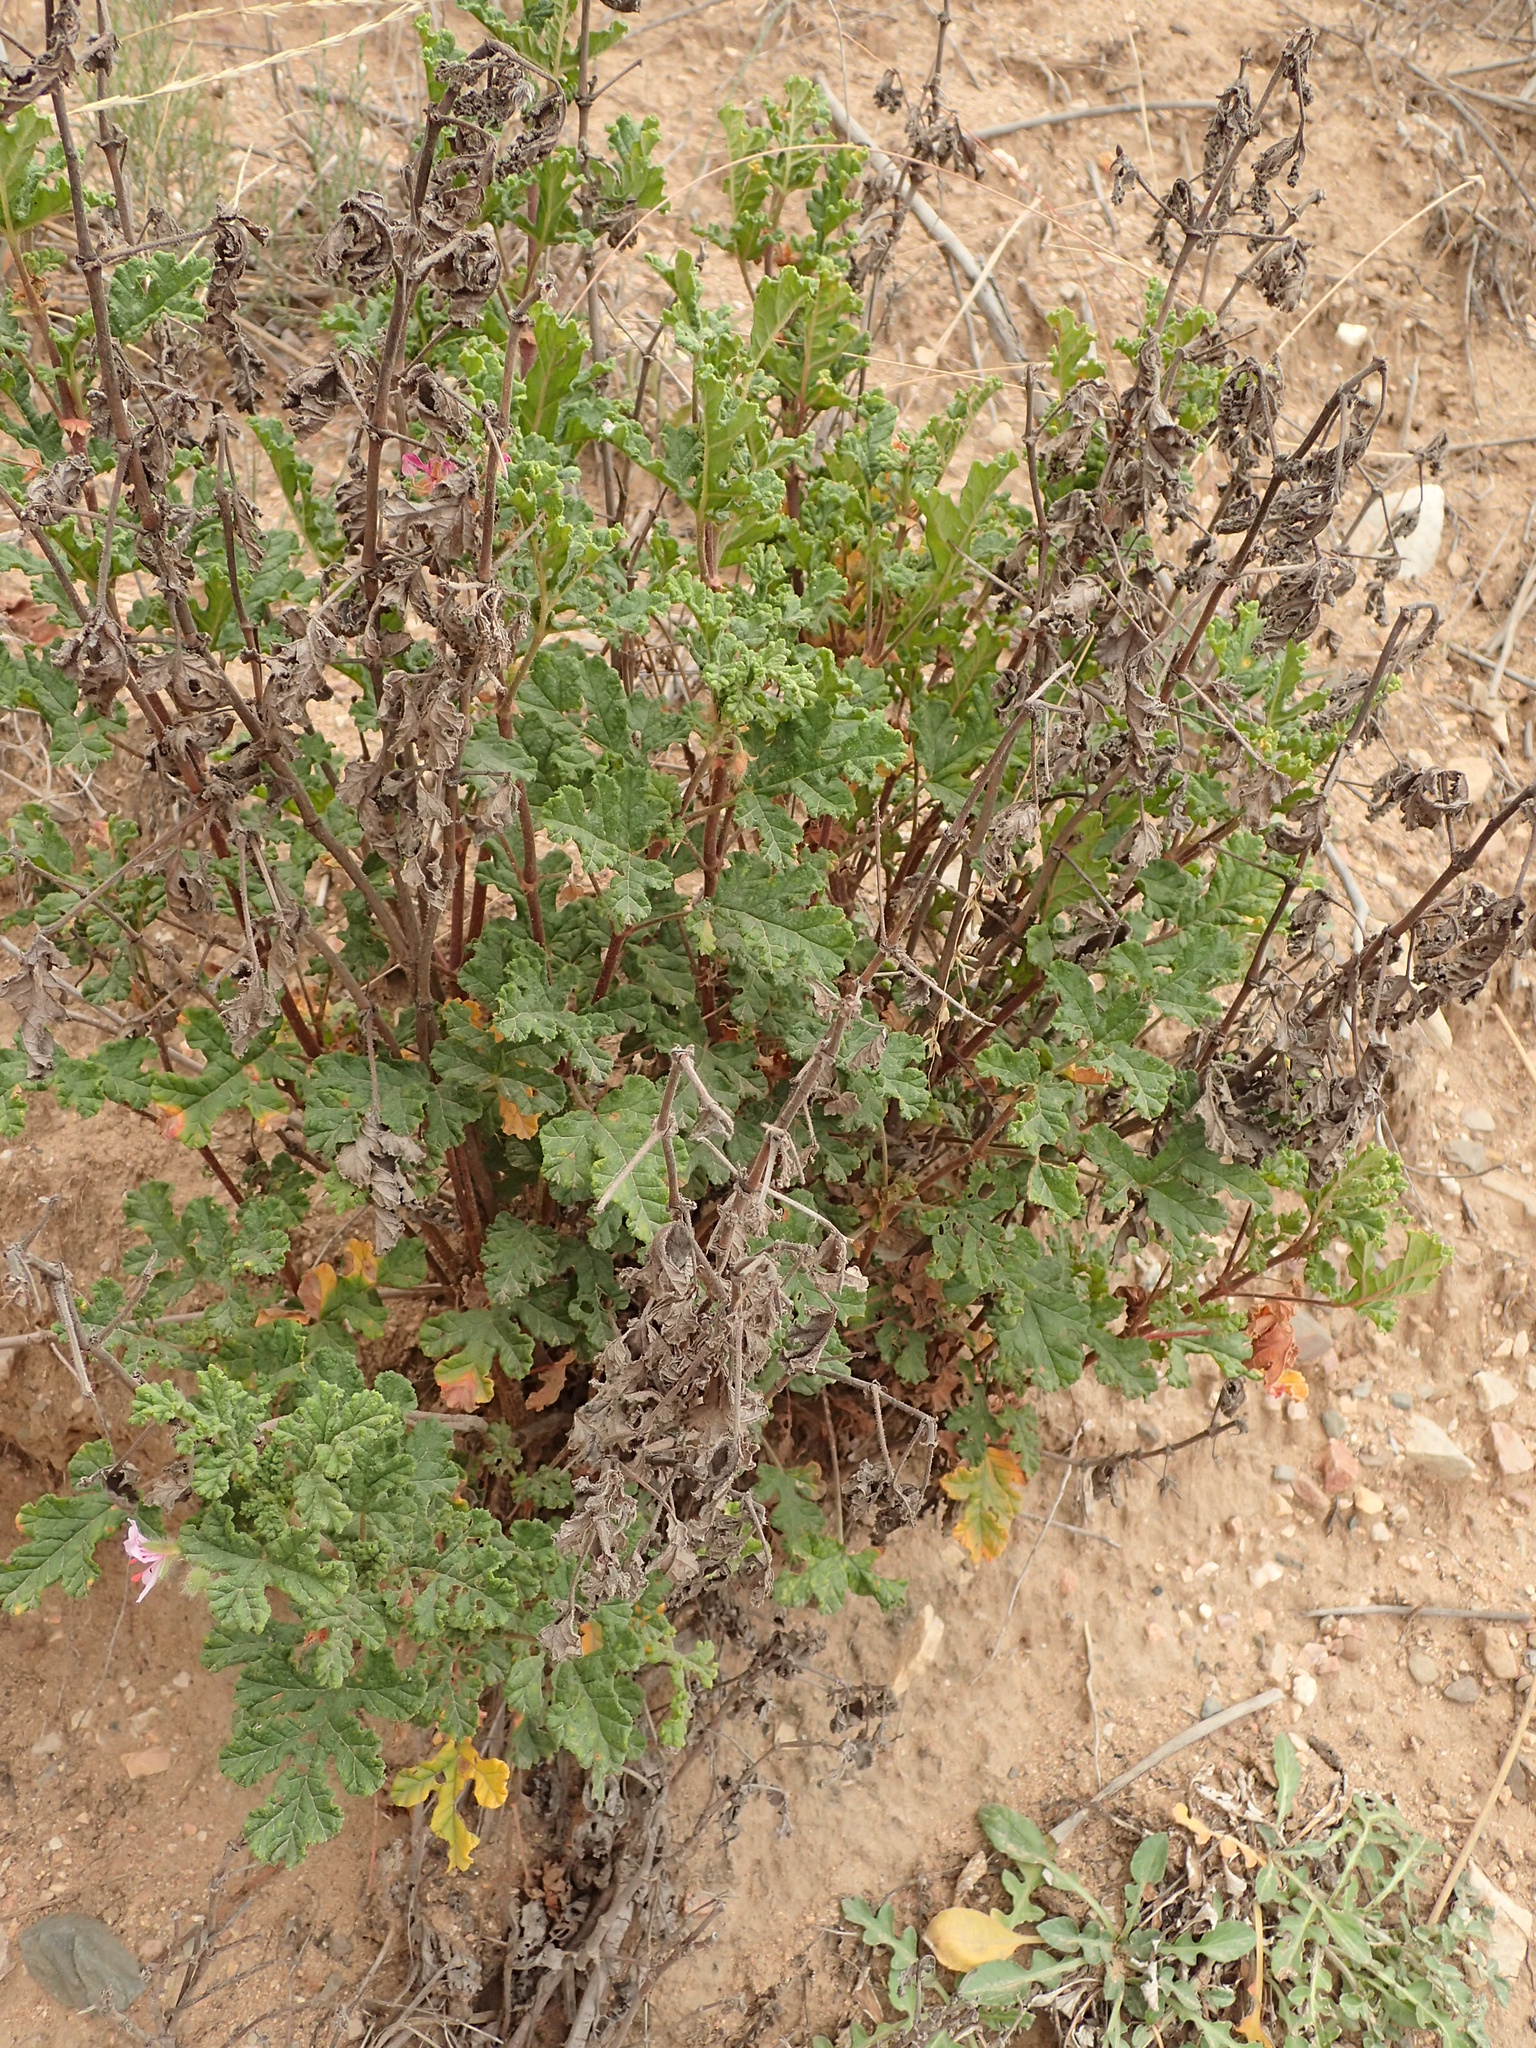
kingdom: Plantae
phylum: Tracheophyta
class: Magnoliopsida
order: Geraniales
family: Geraniaceae
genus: Pelargonium
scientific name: Pelargonium quercifolium
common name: Oakleaf geranium
